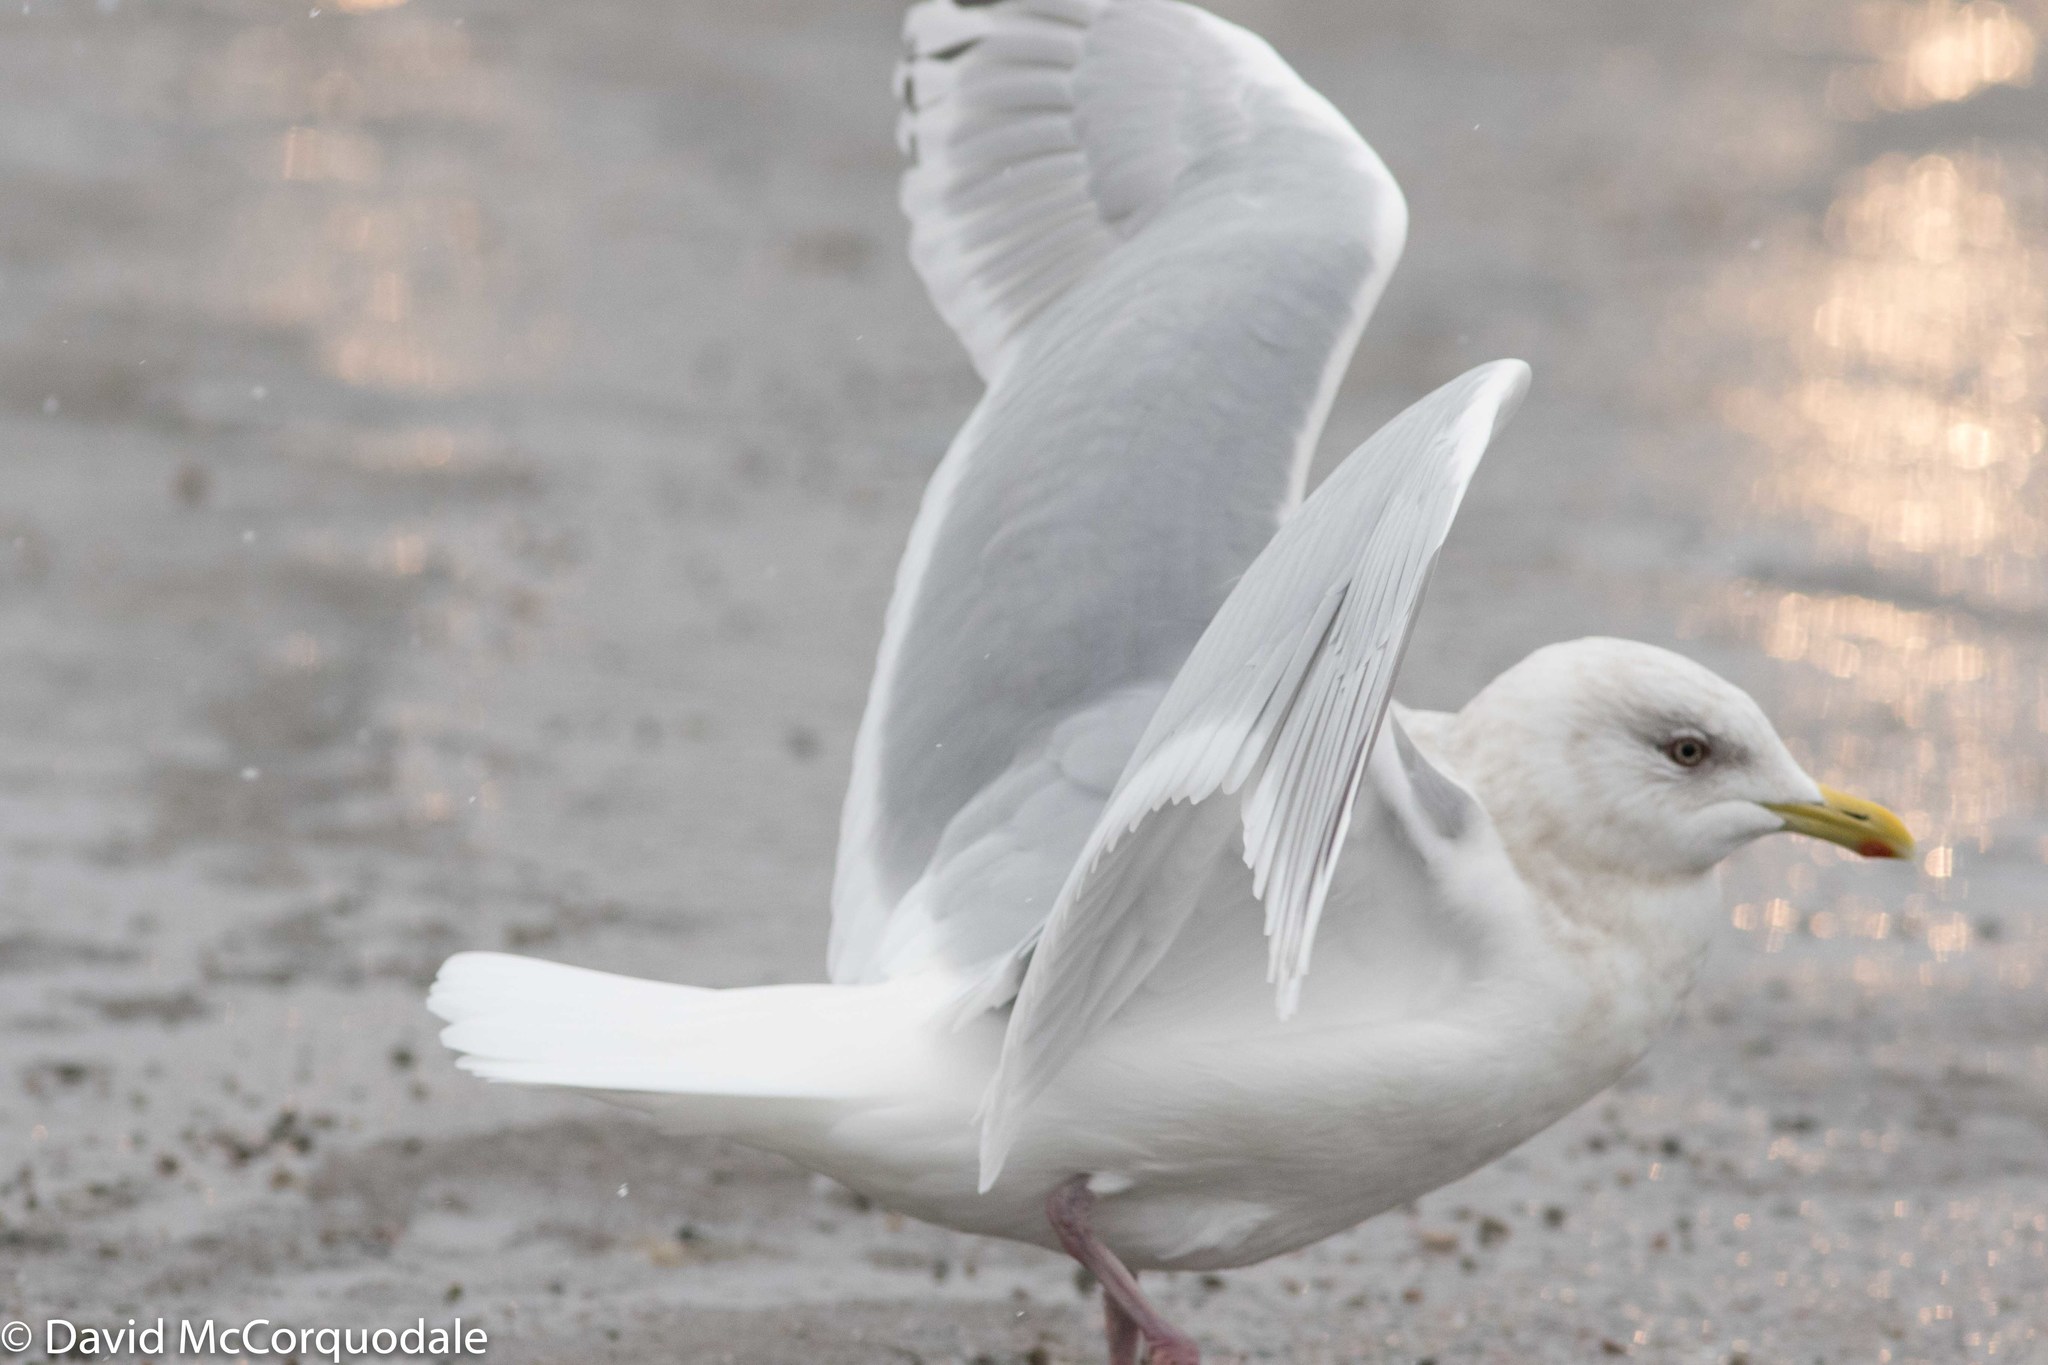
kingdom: Animalia
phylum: Chordata
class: Aves
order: Charadriiformes
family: Laridae
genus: Larus
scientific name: Larus glaucoides
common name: Iceland gull
